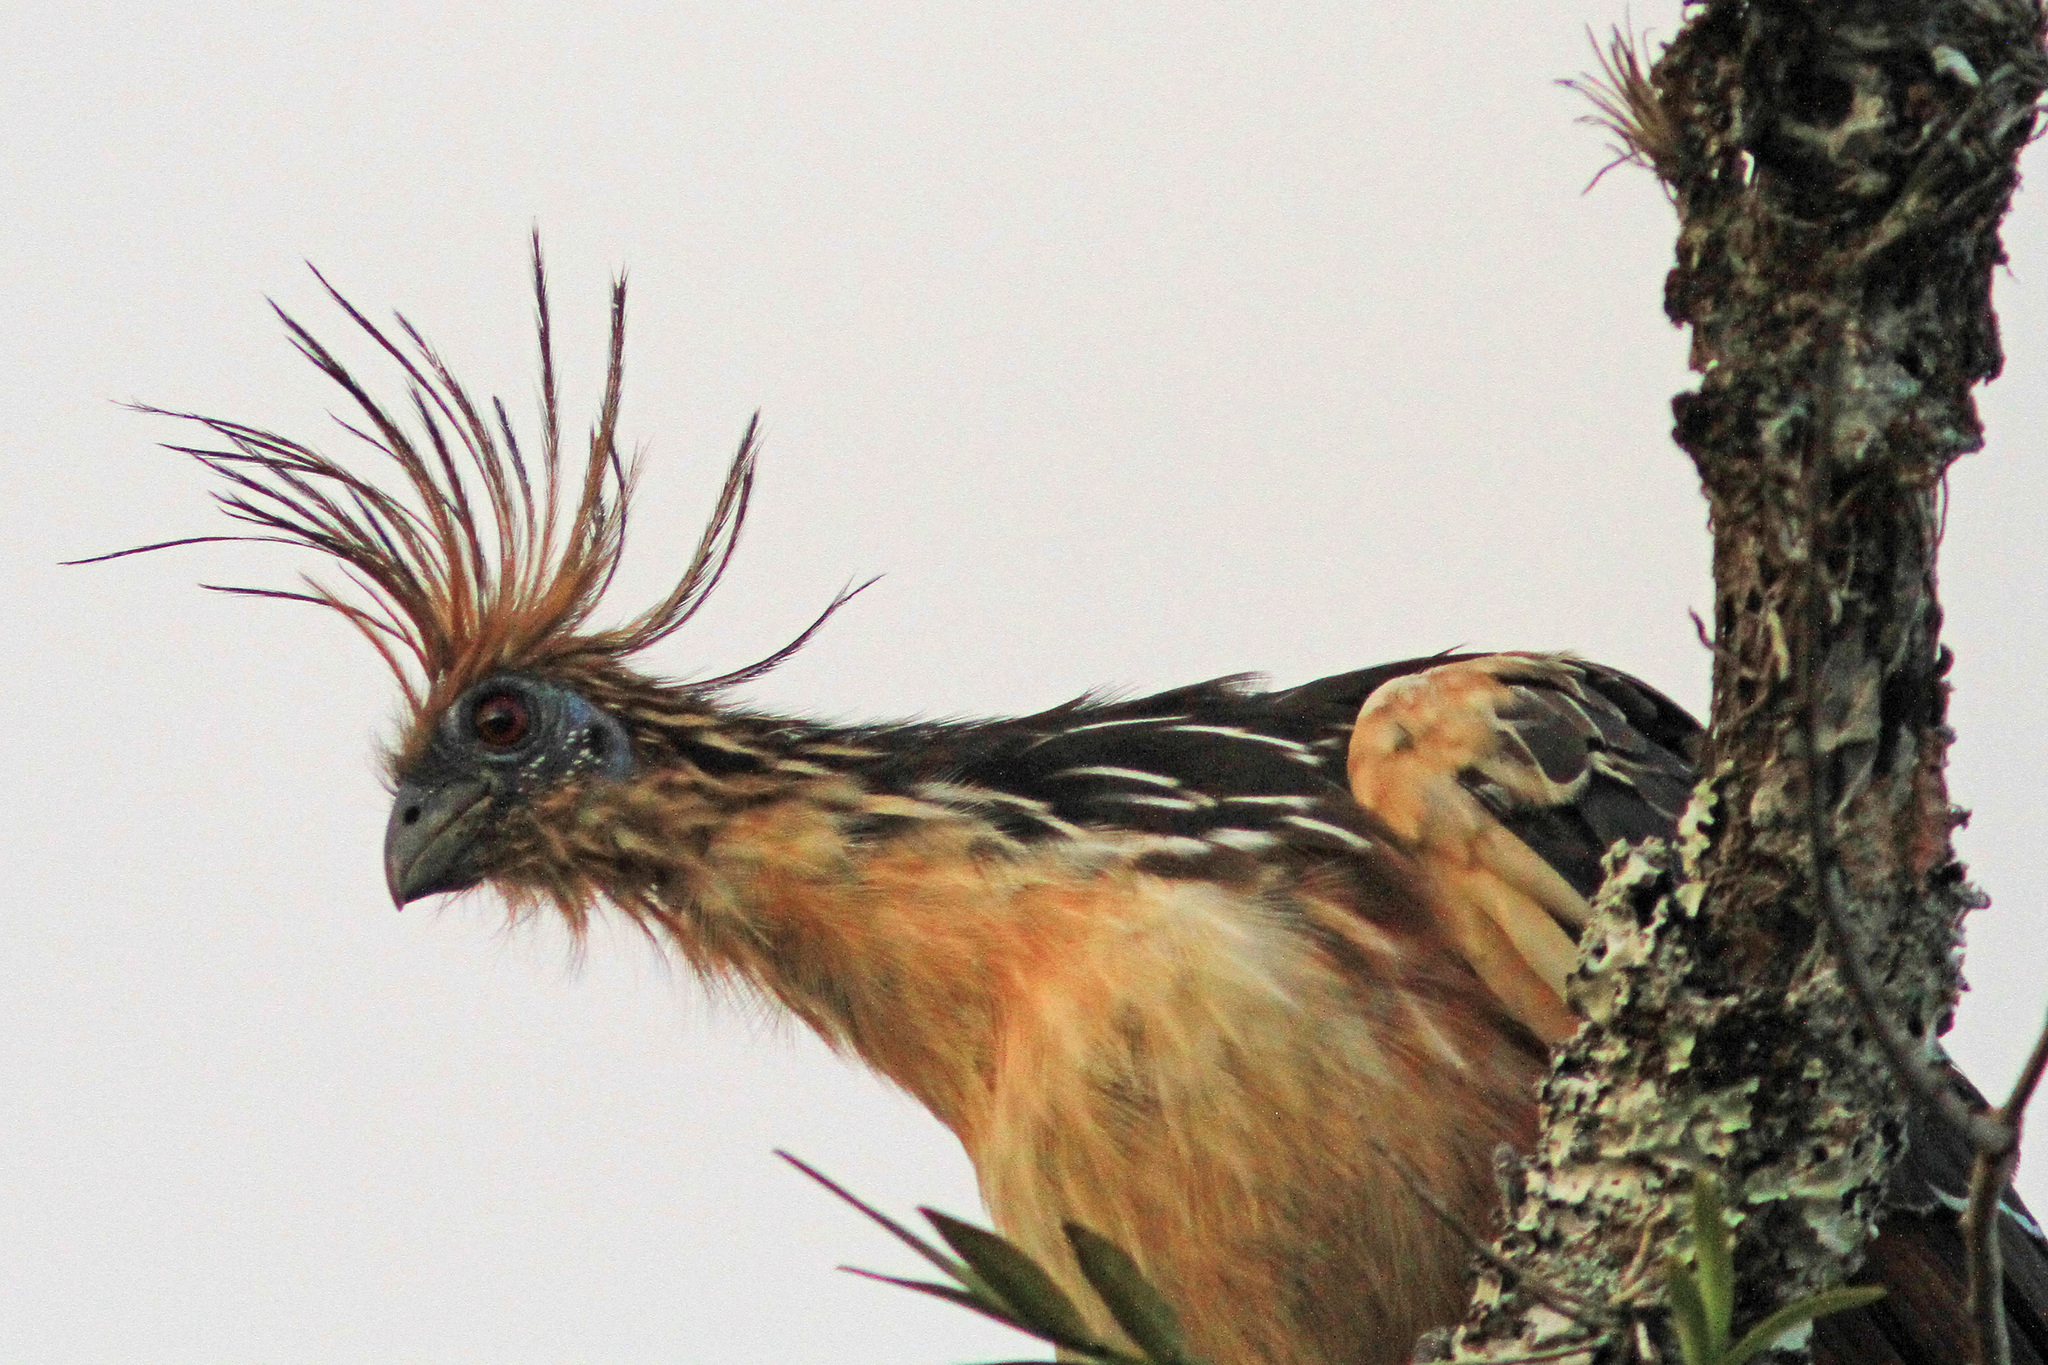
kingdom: Animalia
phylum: Chordata
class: Aves
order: Opisthocomiformes
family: Opisthocomidae
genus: Opisthocomus
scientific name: Opisthocomus hoazin
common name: Hoatzin
